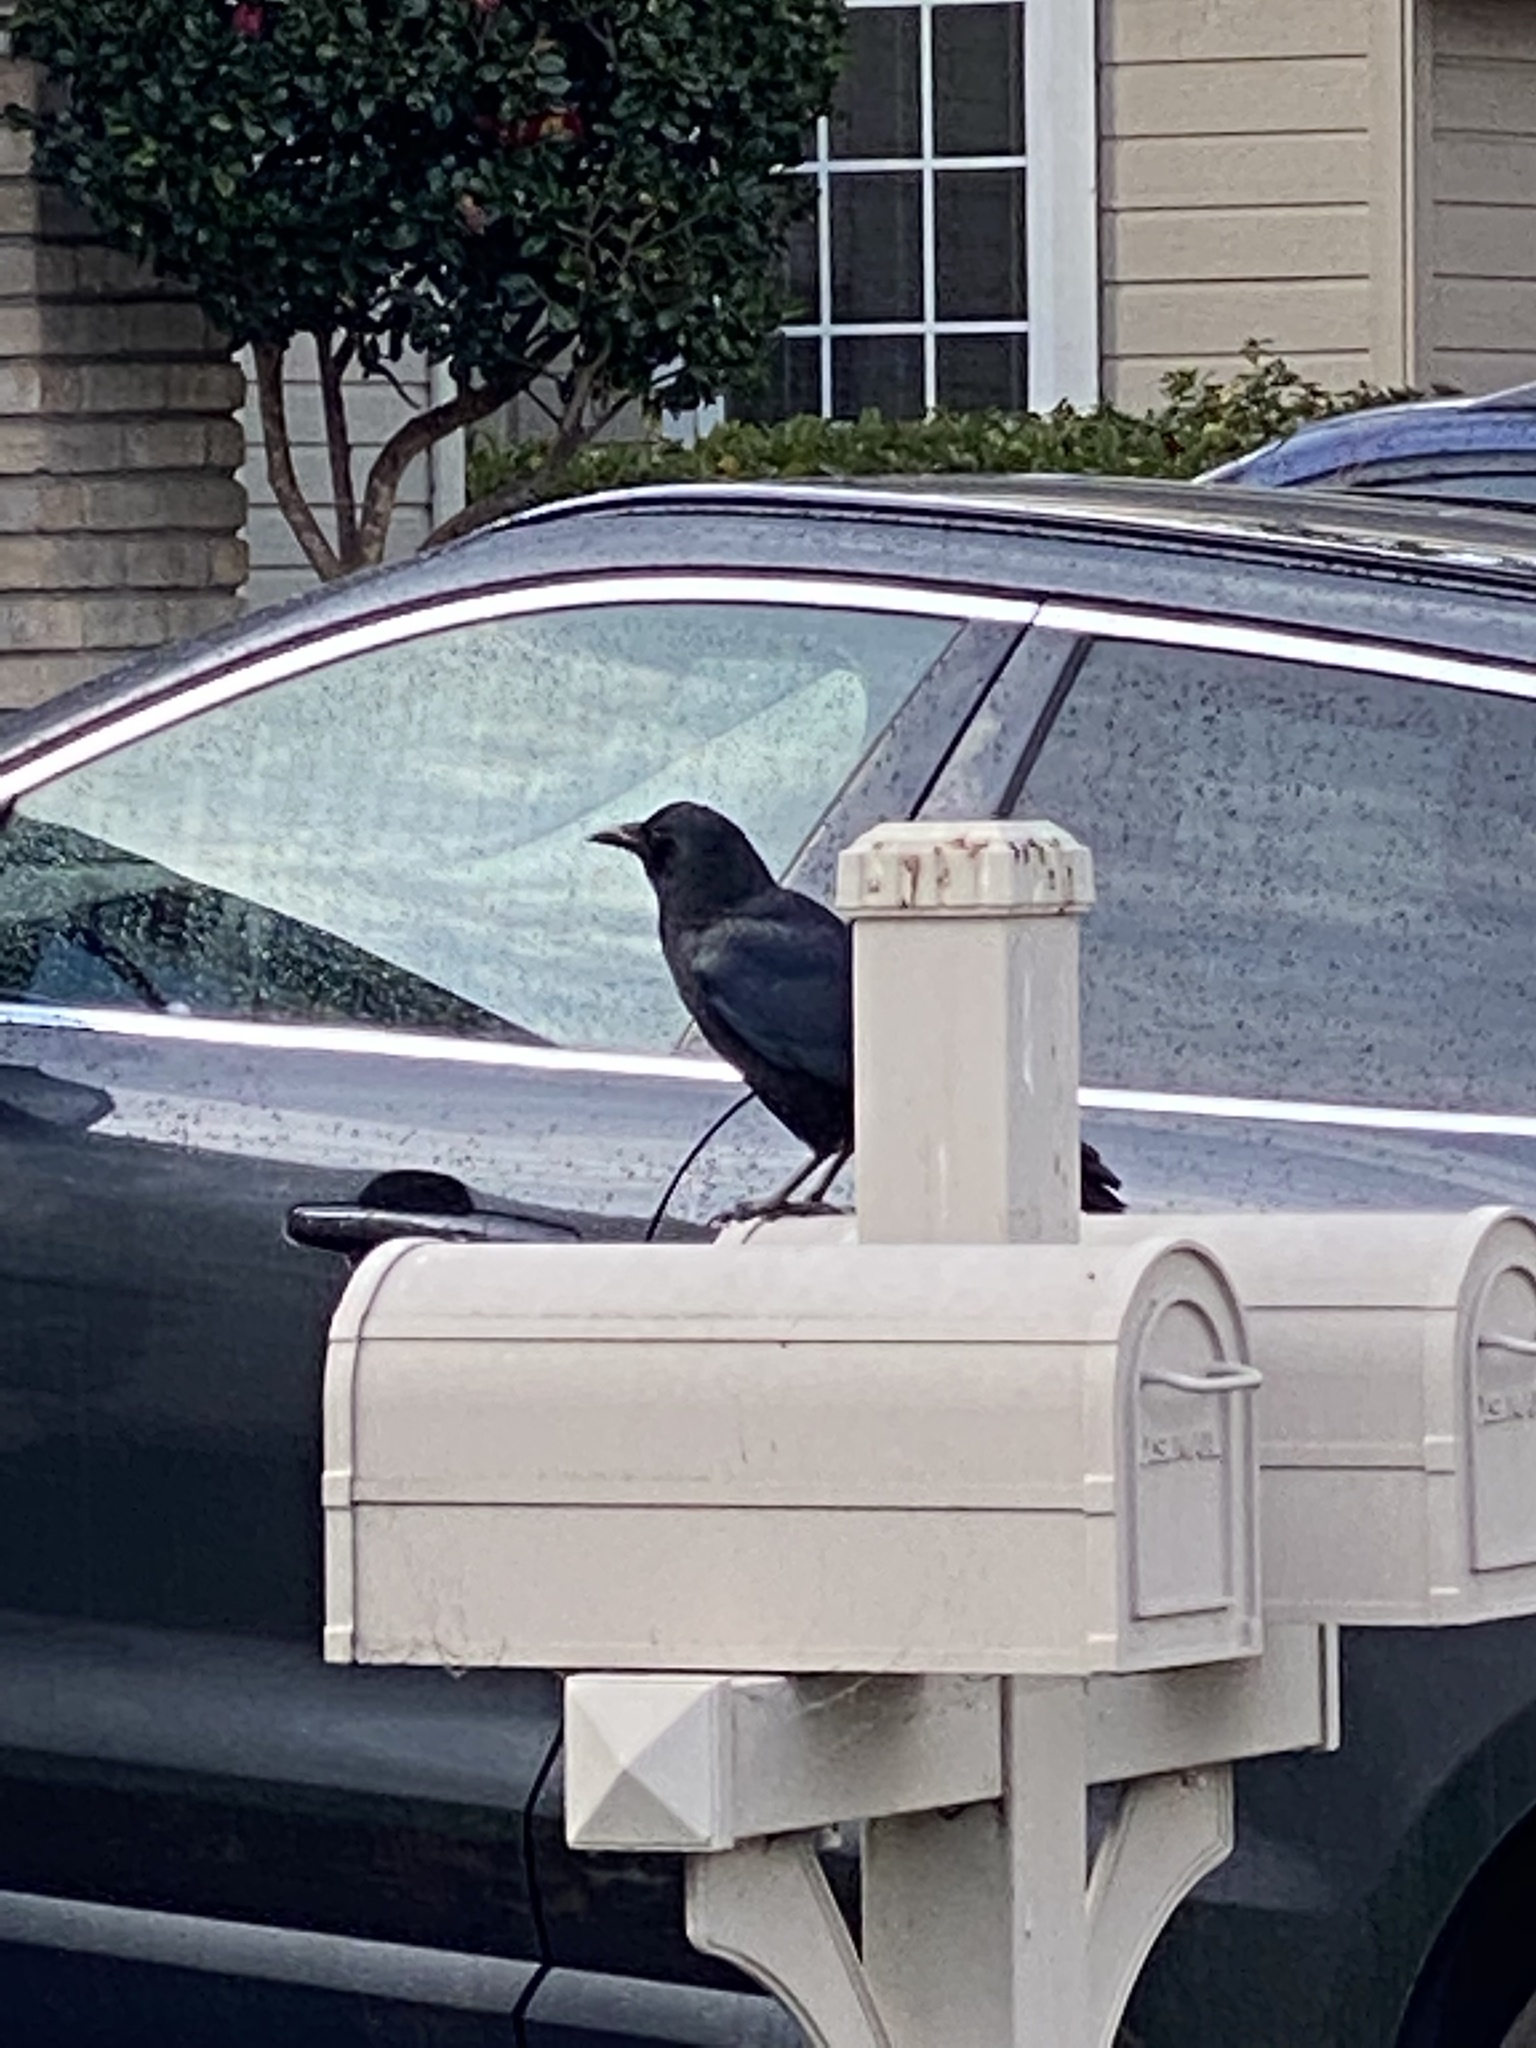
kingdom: Animalia
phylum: Chordata
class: Aves
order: Passeriformes
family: Corvidae
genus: Corvus
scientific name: Corvus brachyrhynchos
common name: American crow
